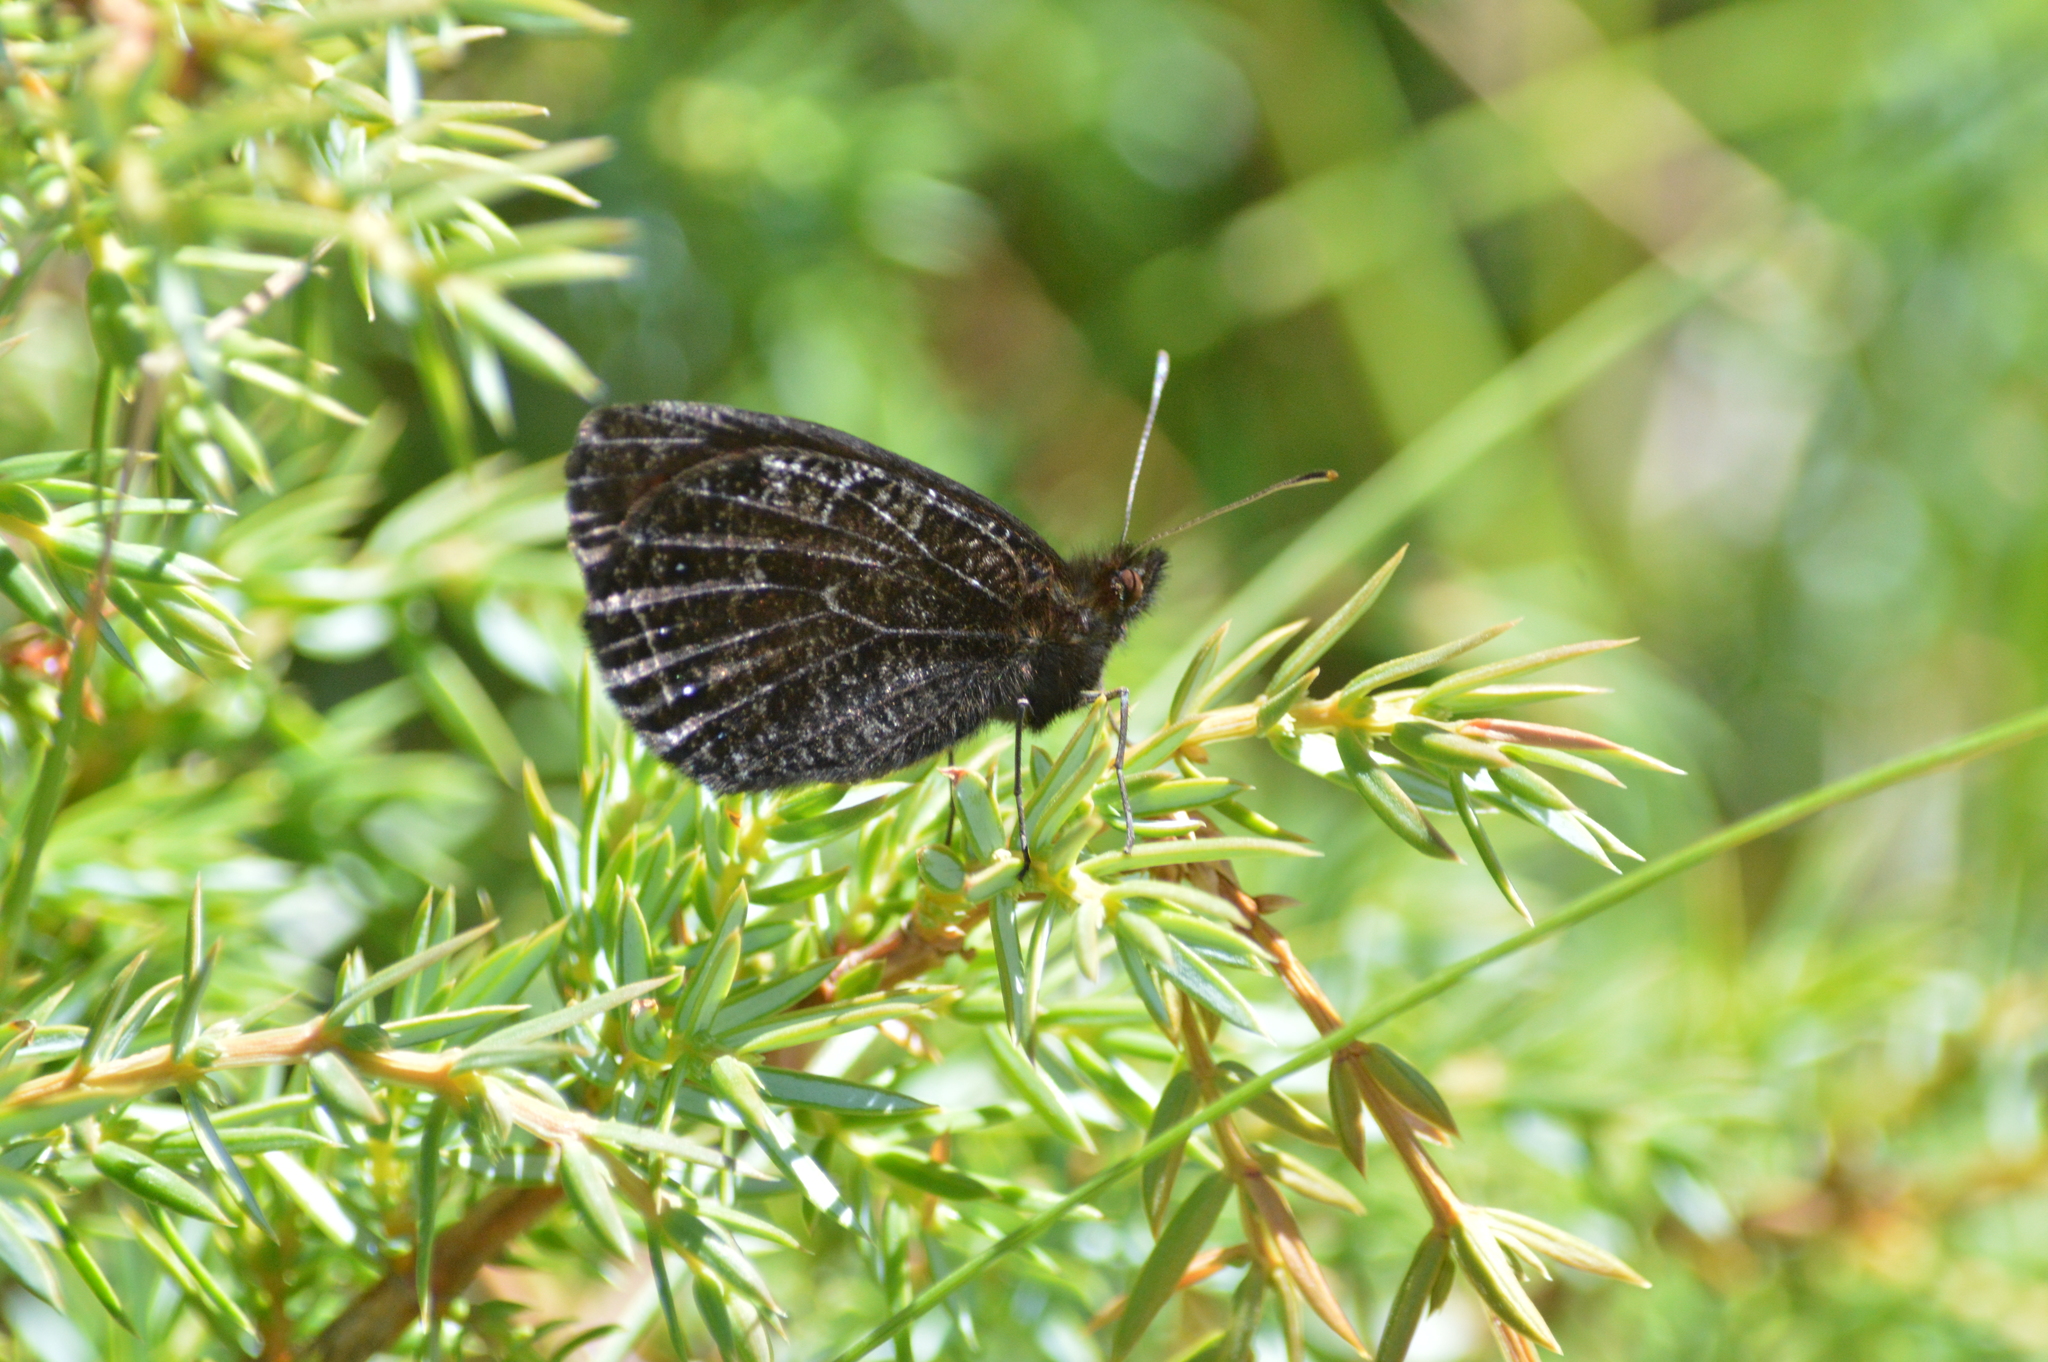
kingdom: Animalia
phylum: Arthropoda
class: Insecta
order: Lepidoptera
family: Nymphalidae
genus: Erebia
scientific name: Erebia montanus
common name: Marbled ringlet
